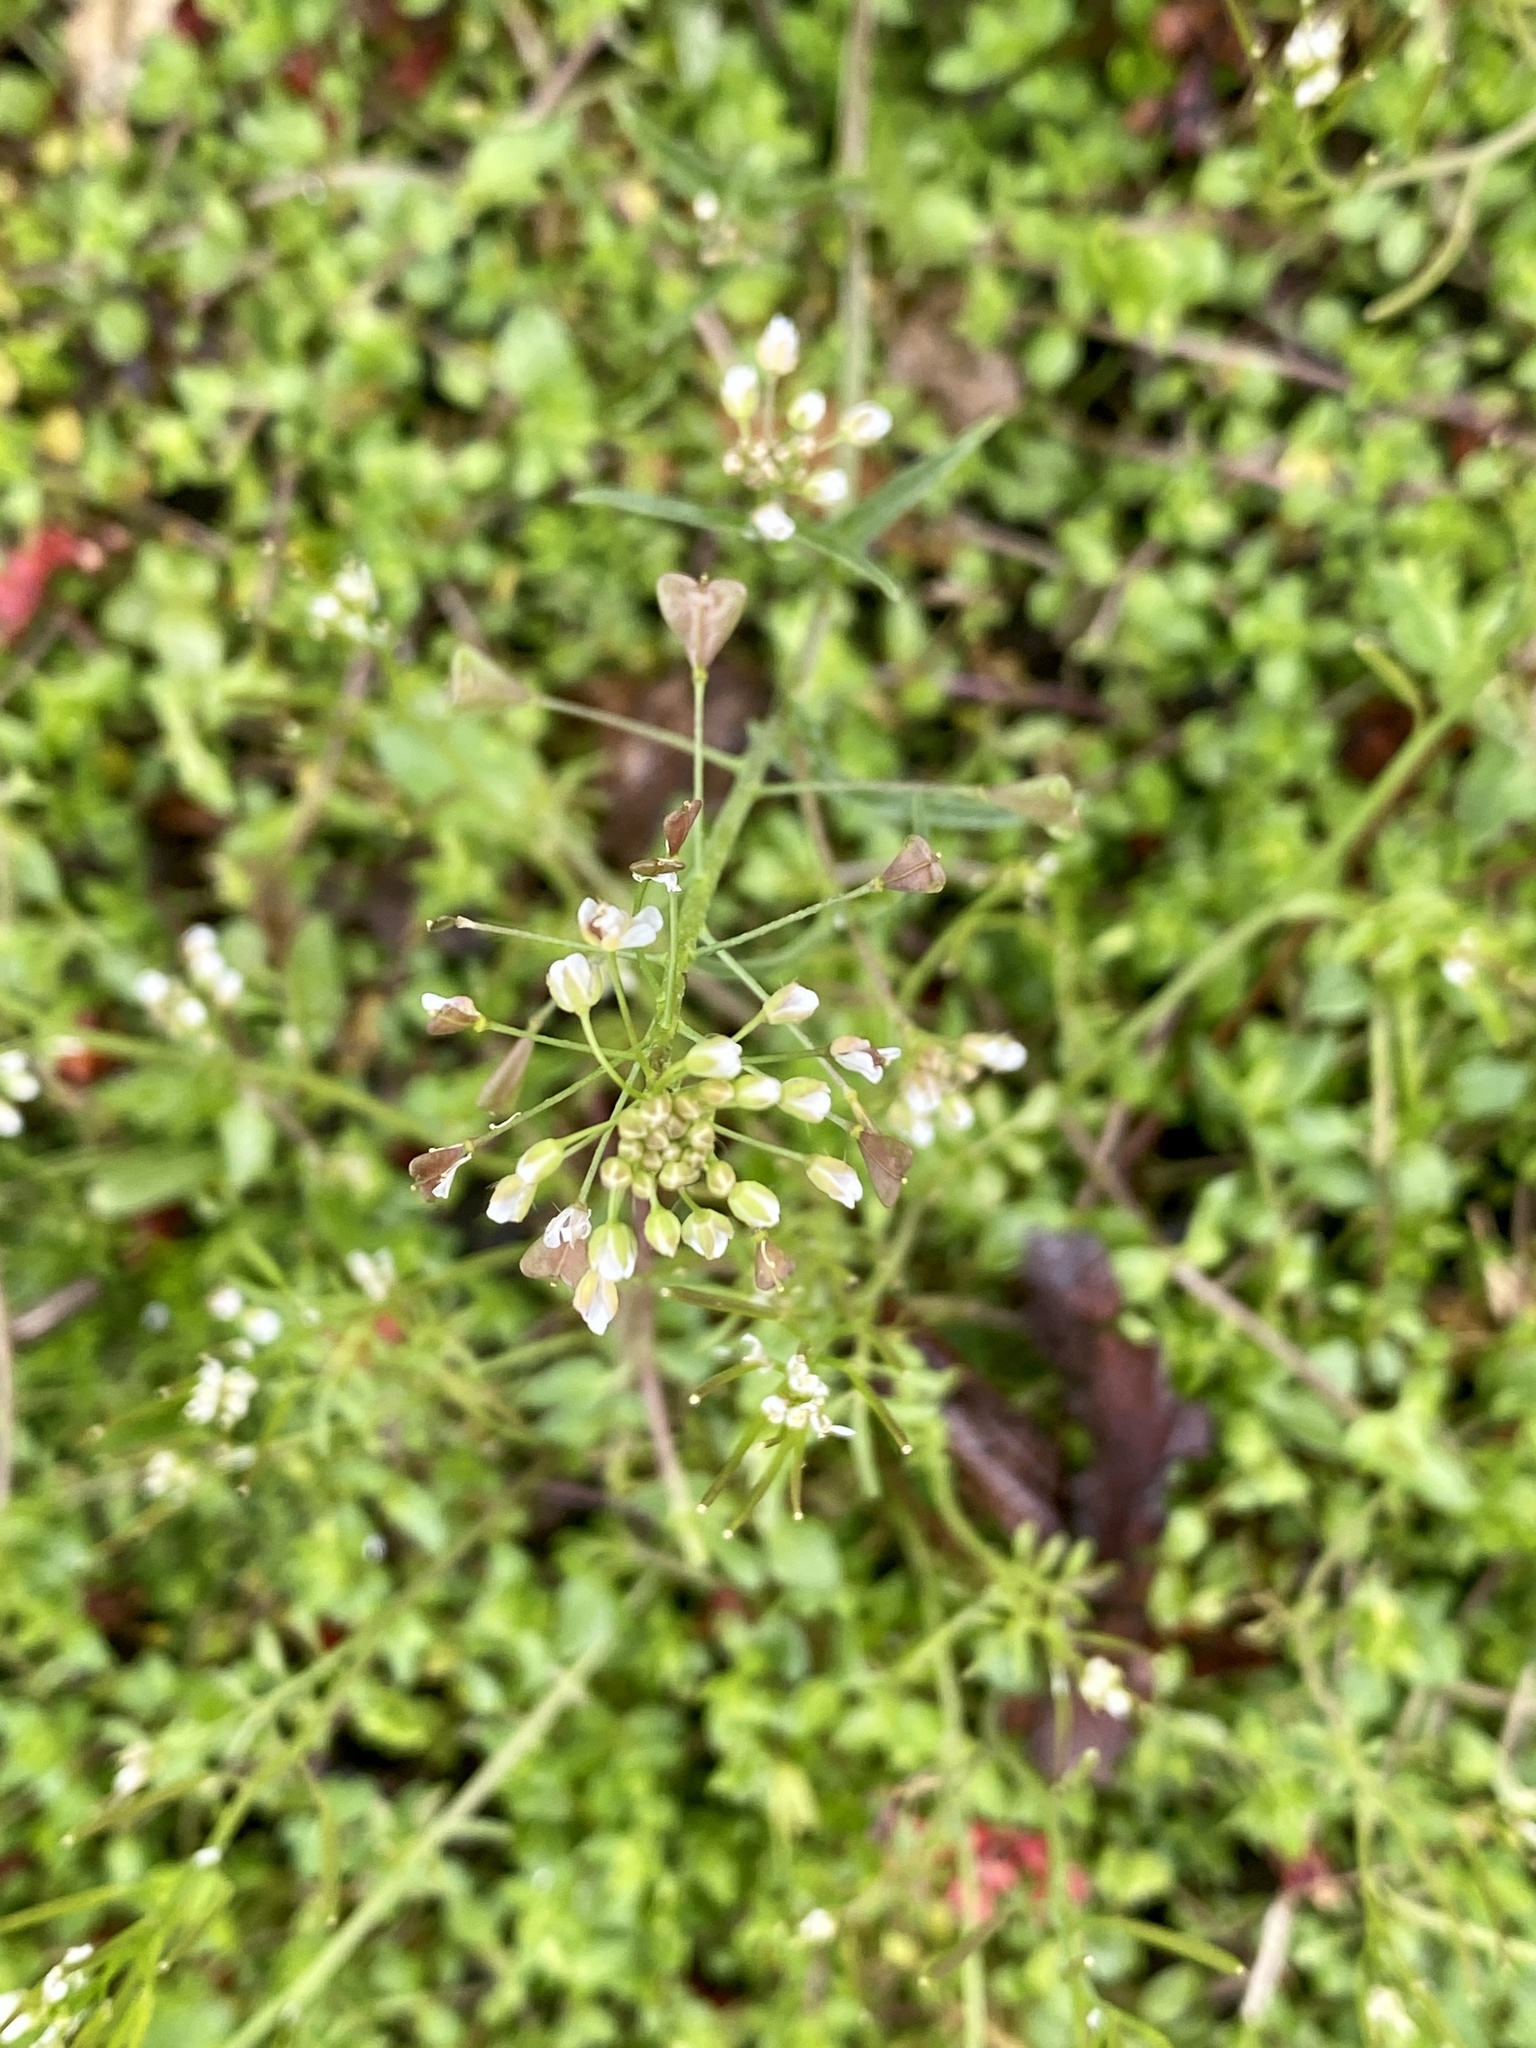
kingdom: Plantae
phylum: Tracheophyta
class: Magnoliopsida
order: Brassicales
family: Brassicaceae
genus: Capsella
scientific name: Capsella bursa-pastoris
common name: Shepherd's purse
